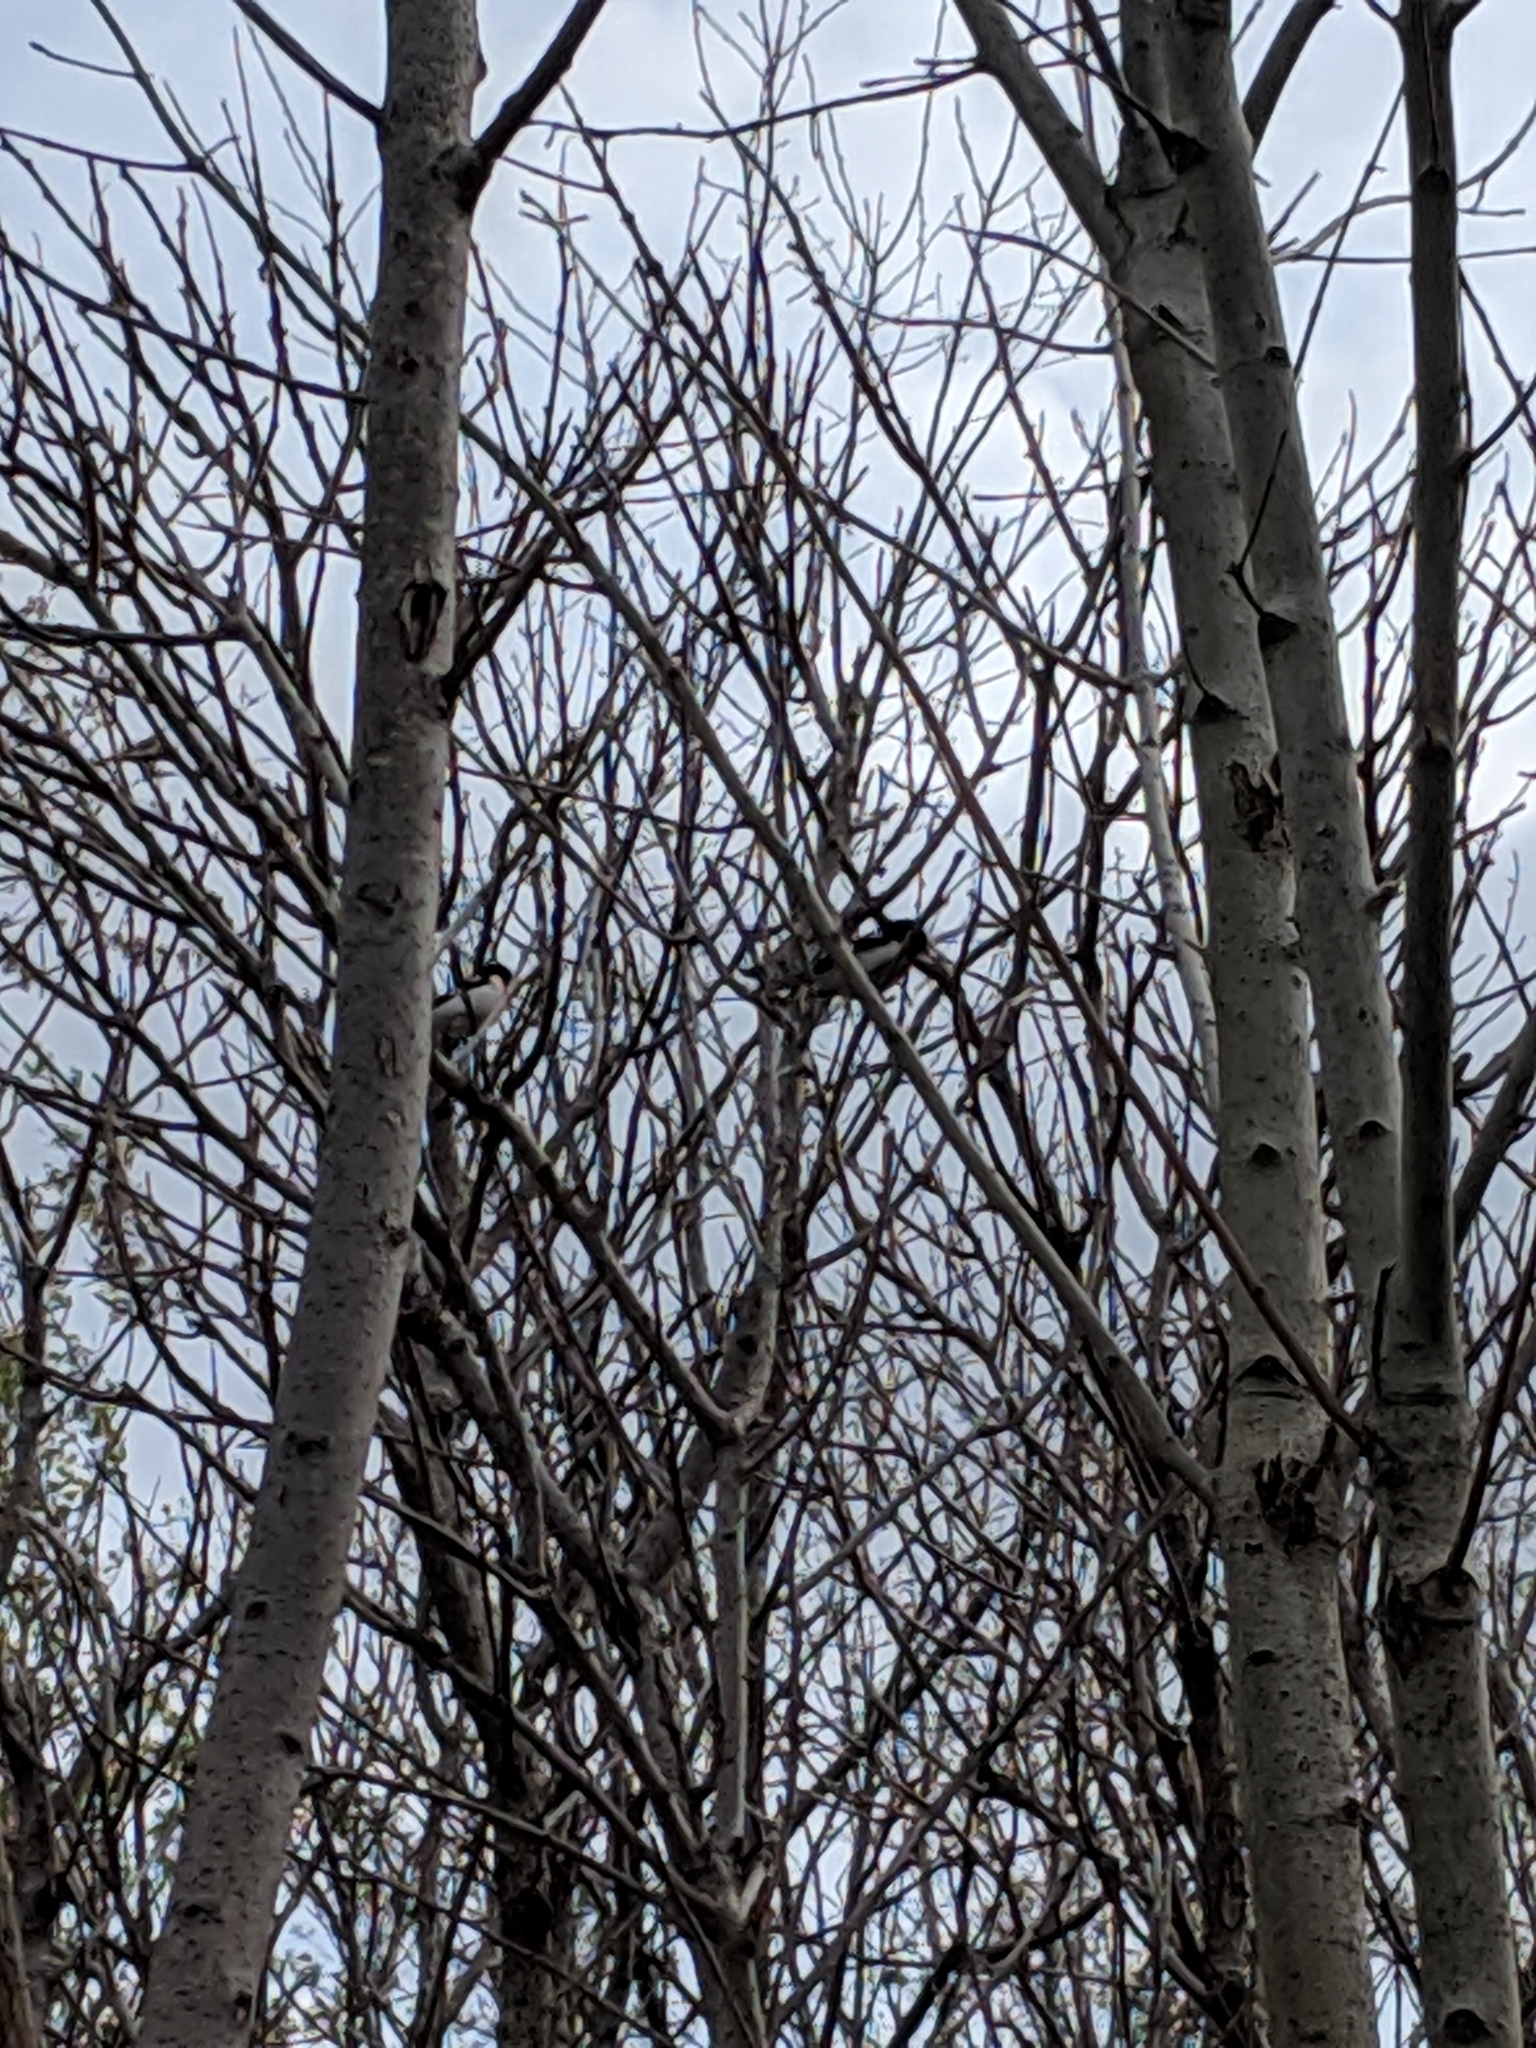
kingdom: Animalia
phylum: Chordata
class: Aves
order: Passeriformes
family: Cardinalidae
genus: Pheucticus
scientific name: Pheucticus ludovicianus
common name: Rose-breasted grosbeak
